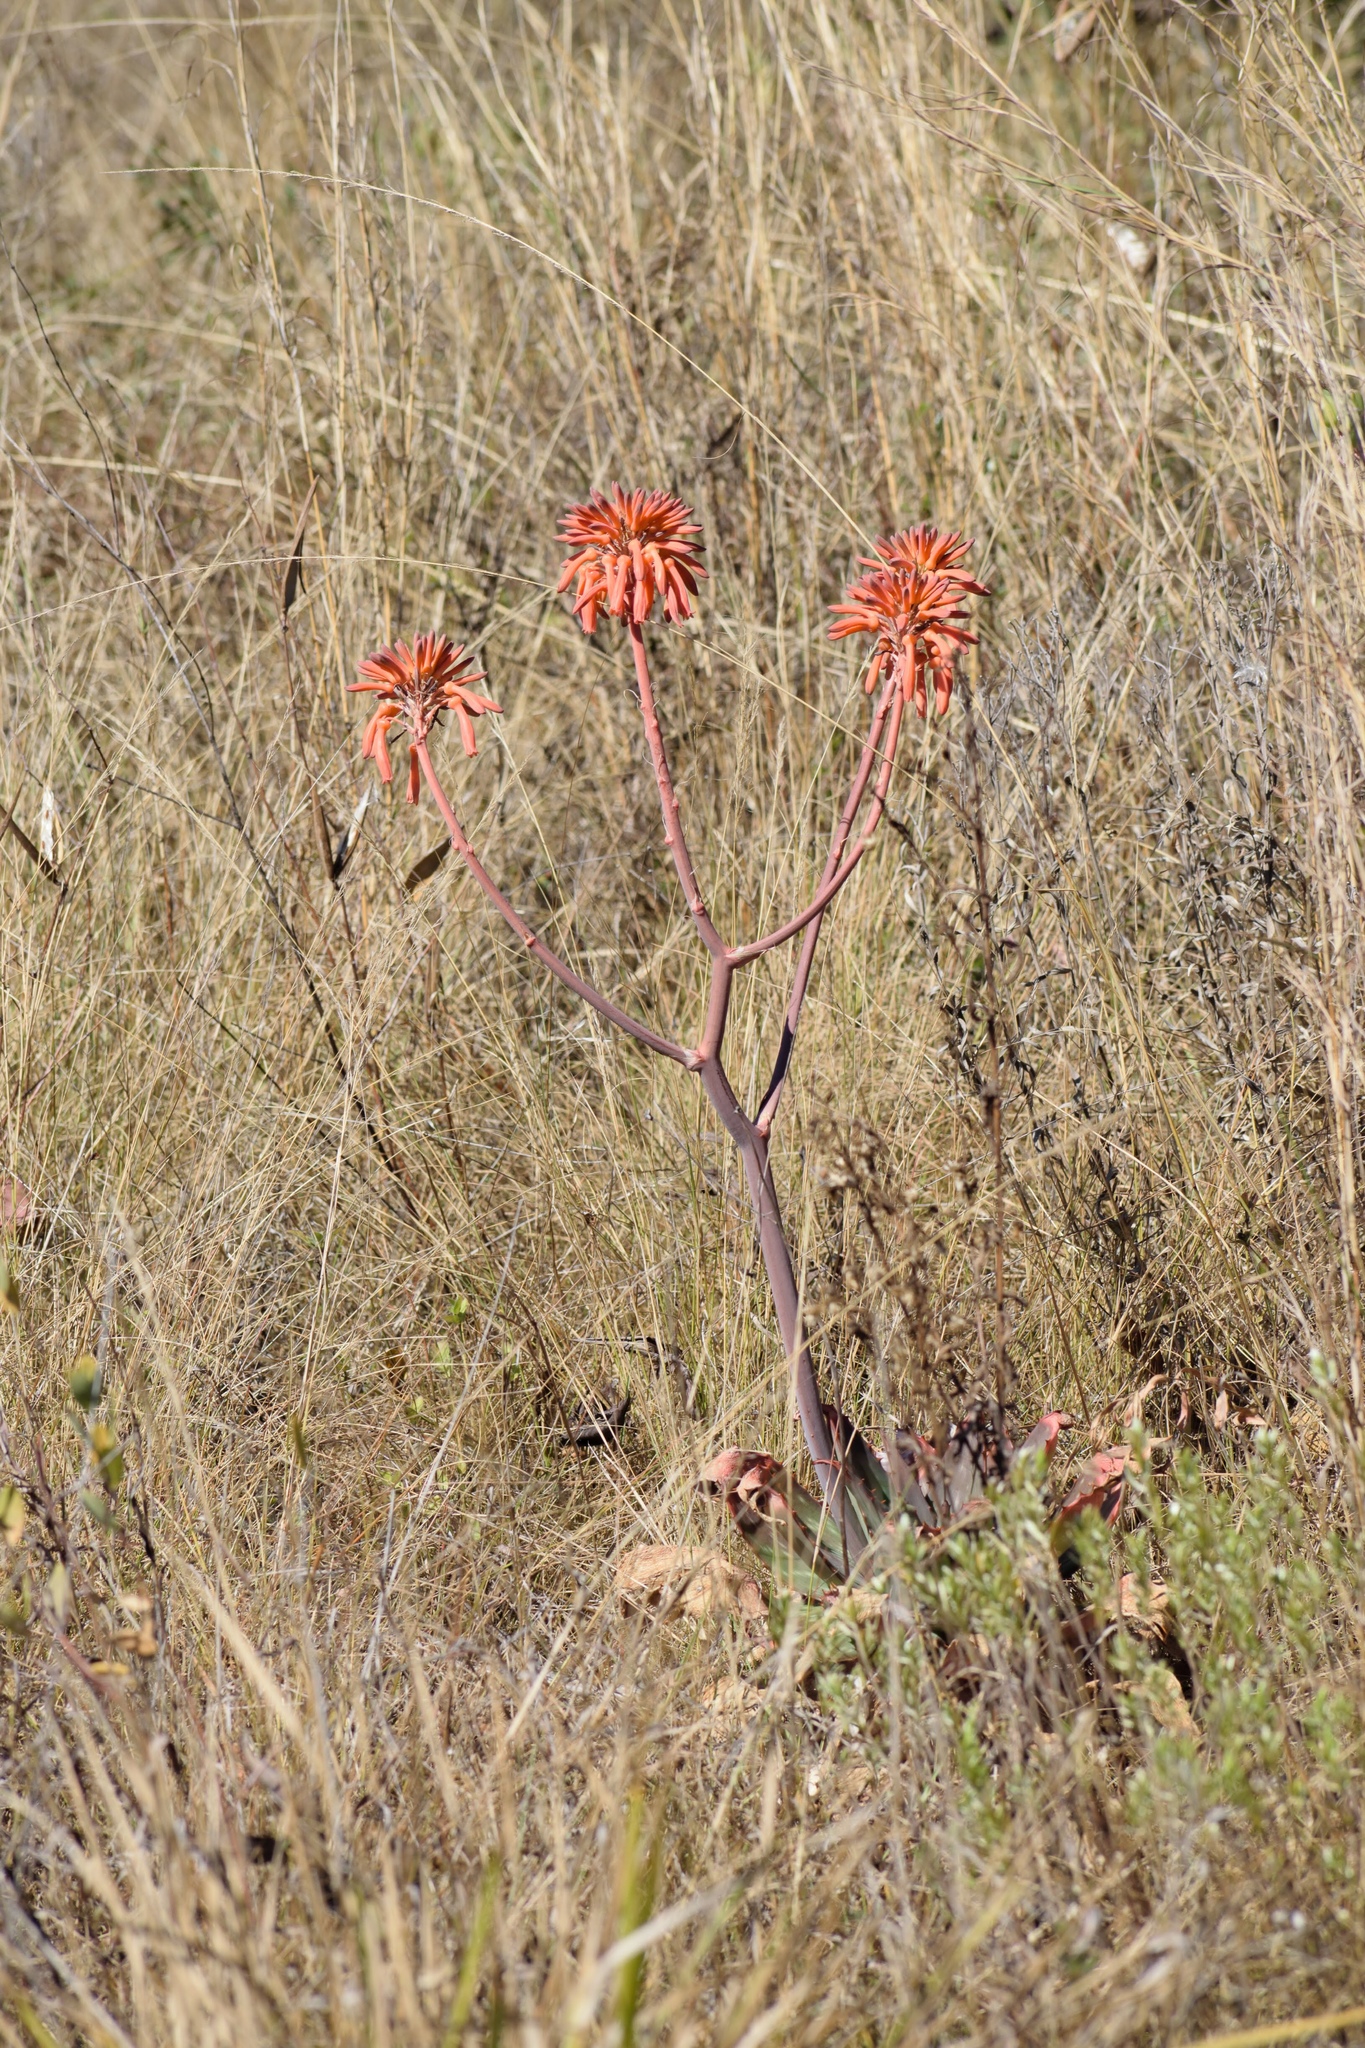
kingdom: Plantae
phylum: Tracheophyta
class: Liliopsida
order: Asparagales
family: Asphodelaceae
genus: Aloe
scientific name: Aloe maculata
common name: Broadleaf aloe
